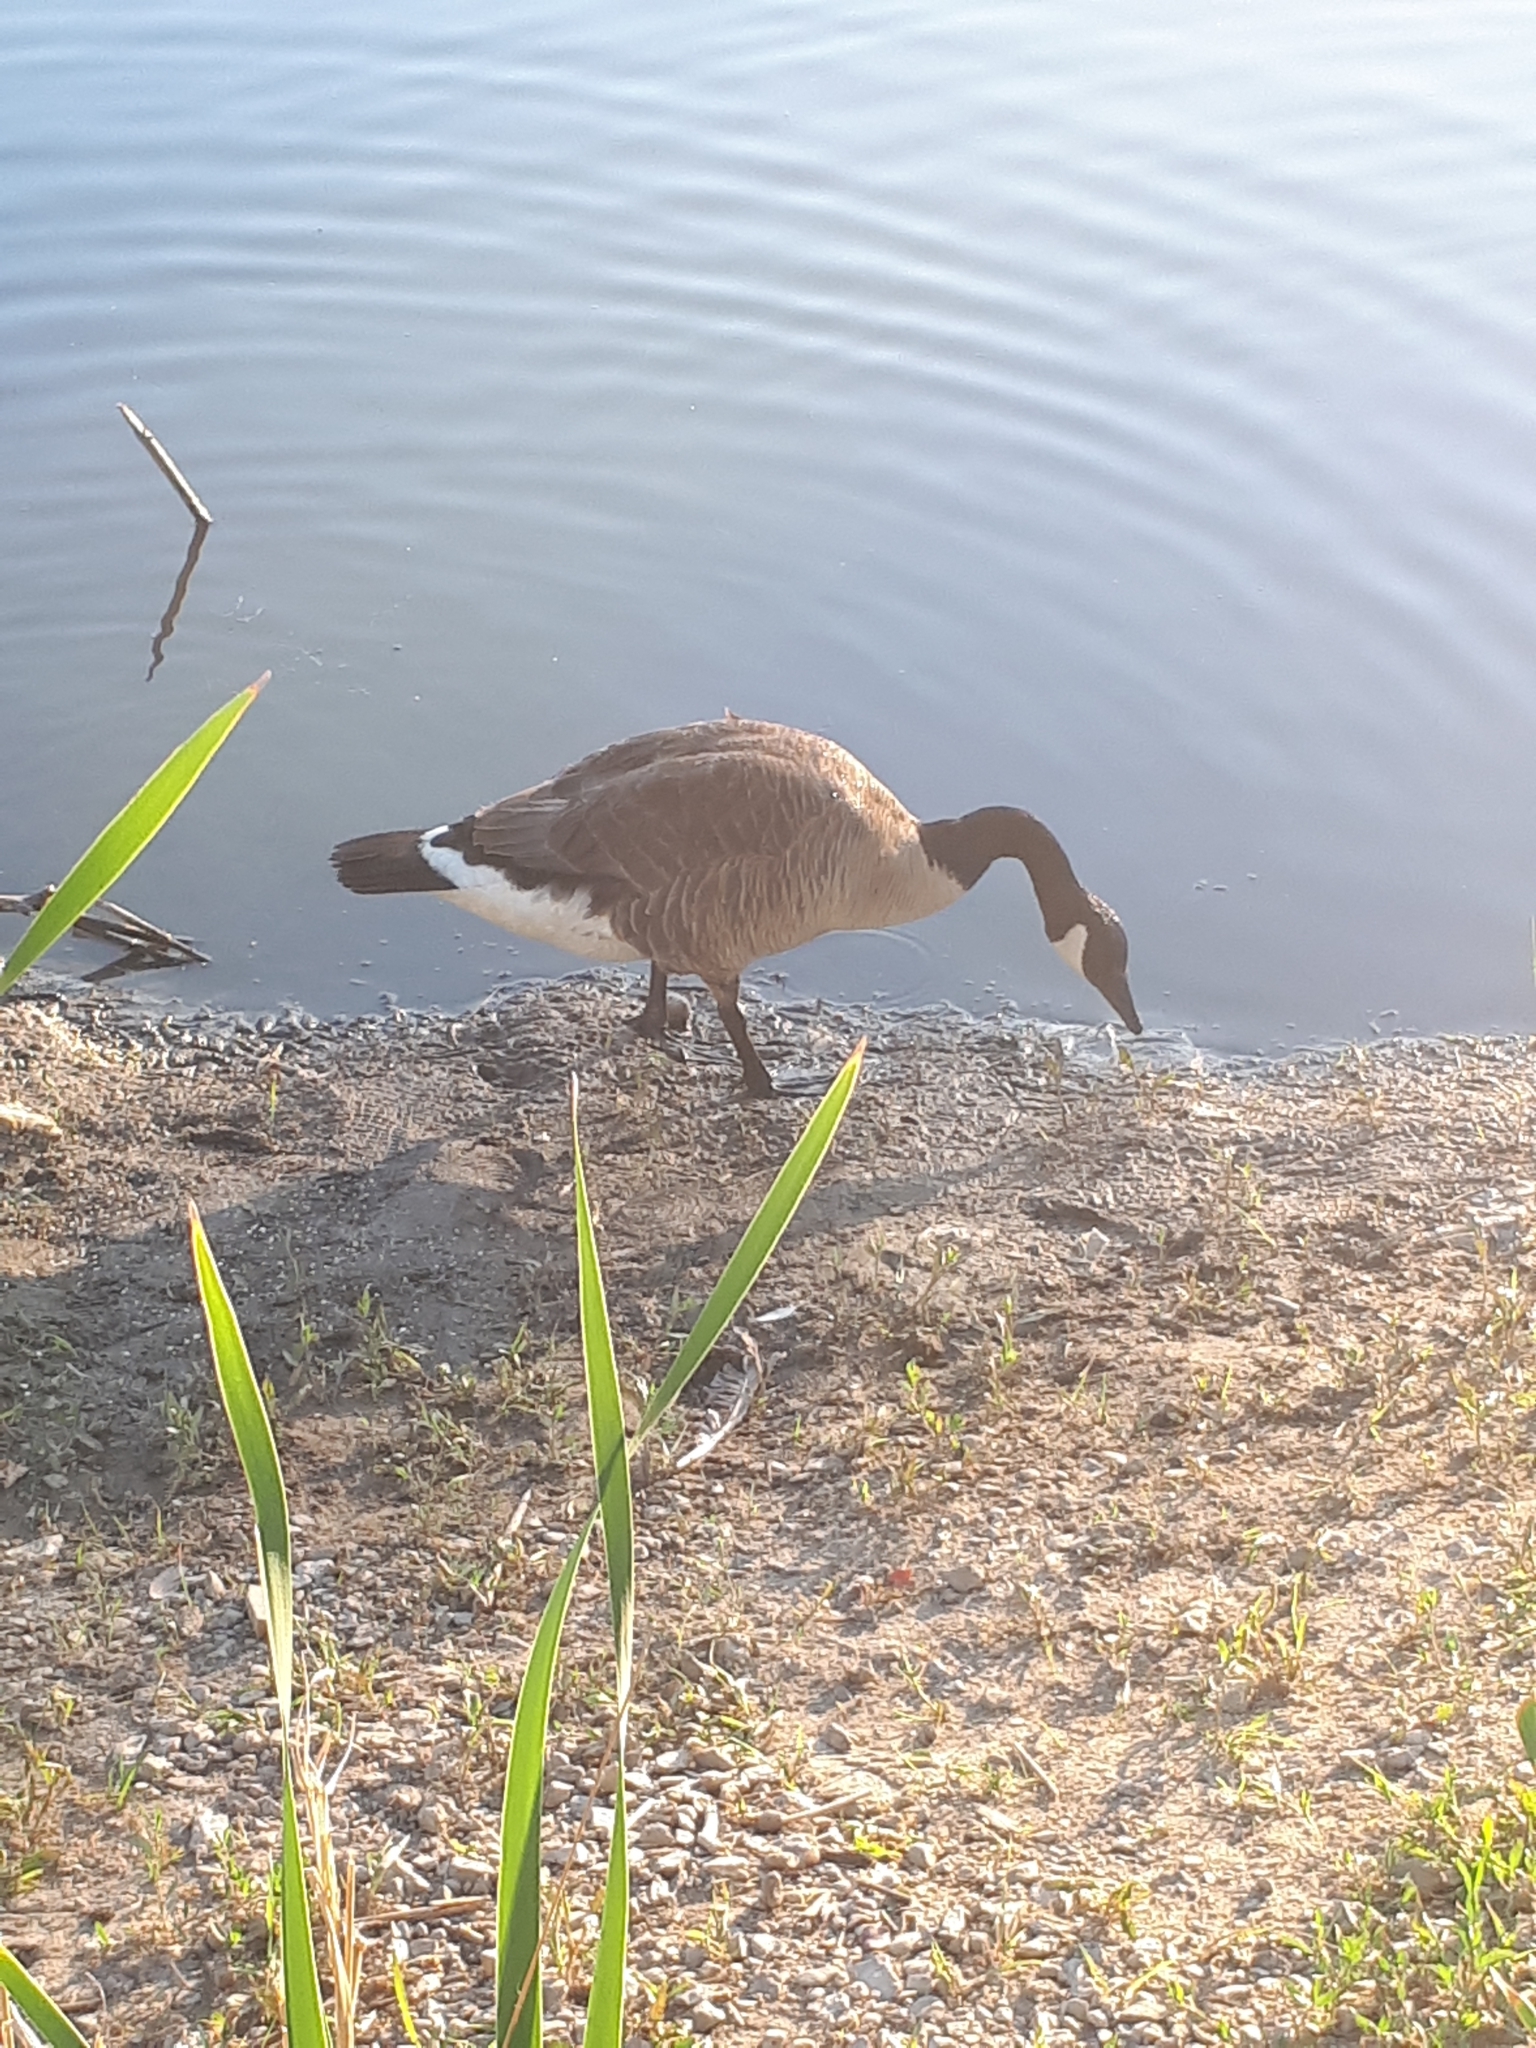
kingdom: Animalia
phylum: Chordata
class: Aves
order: Anseriformes
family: Anatidae
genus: Branta
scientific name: Branta canadensis
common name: Canada goose
